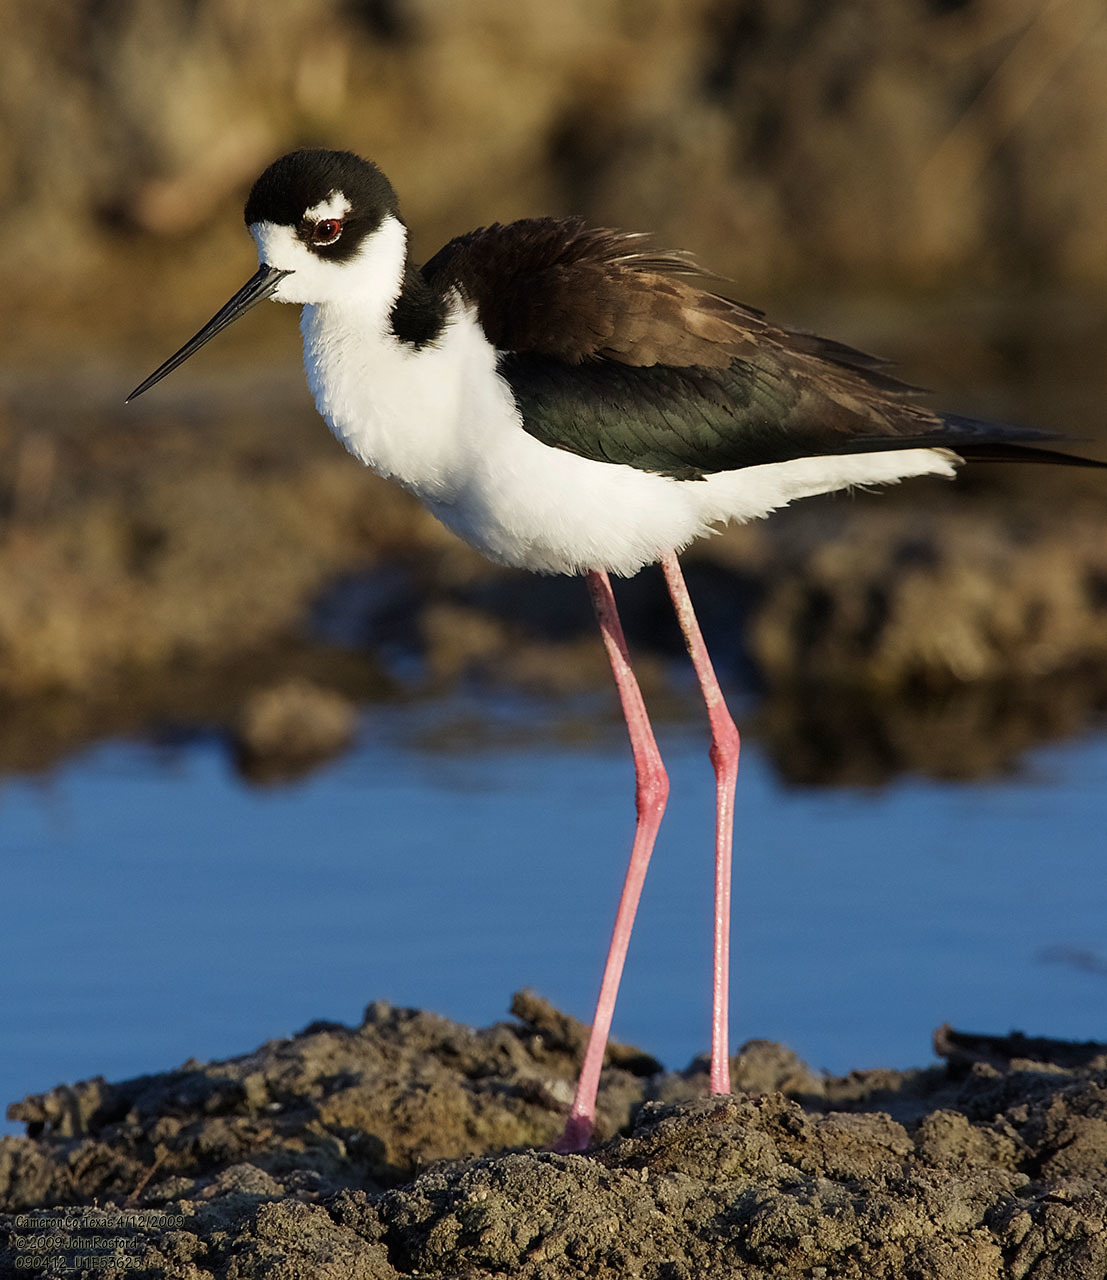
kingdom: Animalia
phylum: Chordata
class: Aves
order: Charadriiformes
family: Recurvirostridae
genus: Himantopus
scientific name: Himantopus mexicanus
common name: Black-necked stilt
